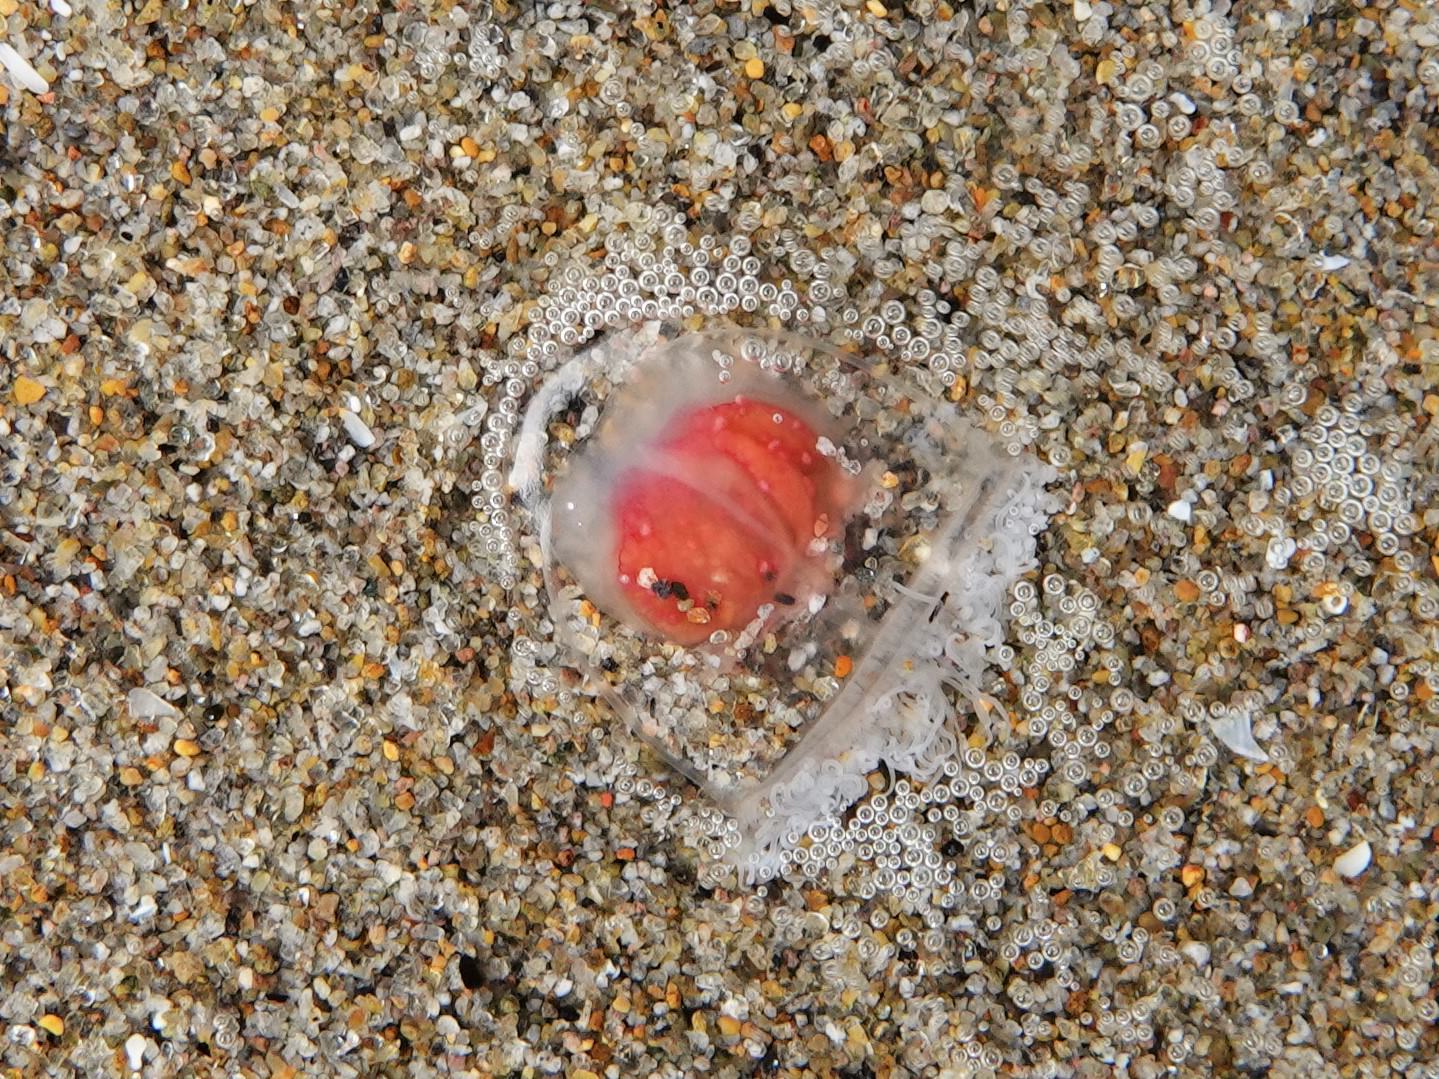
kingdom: Animalia
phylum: Cnidaria
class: Hydrozoa
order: Anthoathecata
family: Oceaniidae
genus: Turritopsis
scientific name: Turritopsis rubra
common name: Crimson jelly
